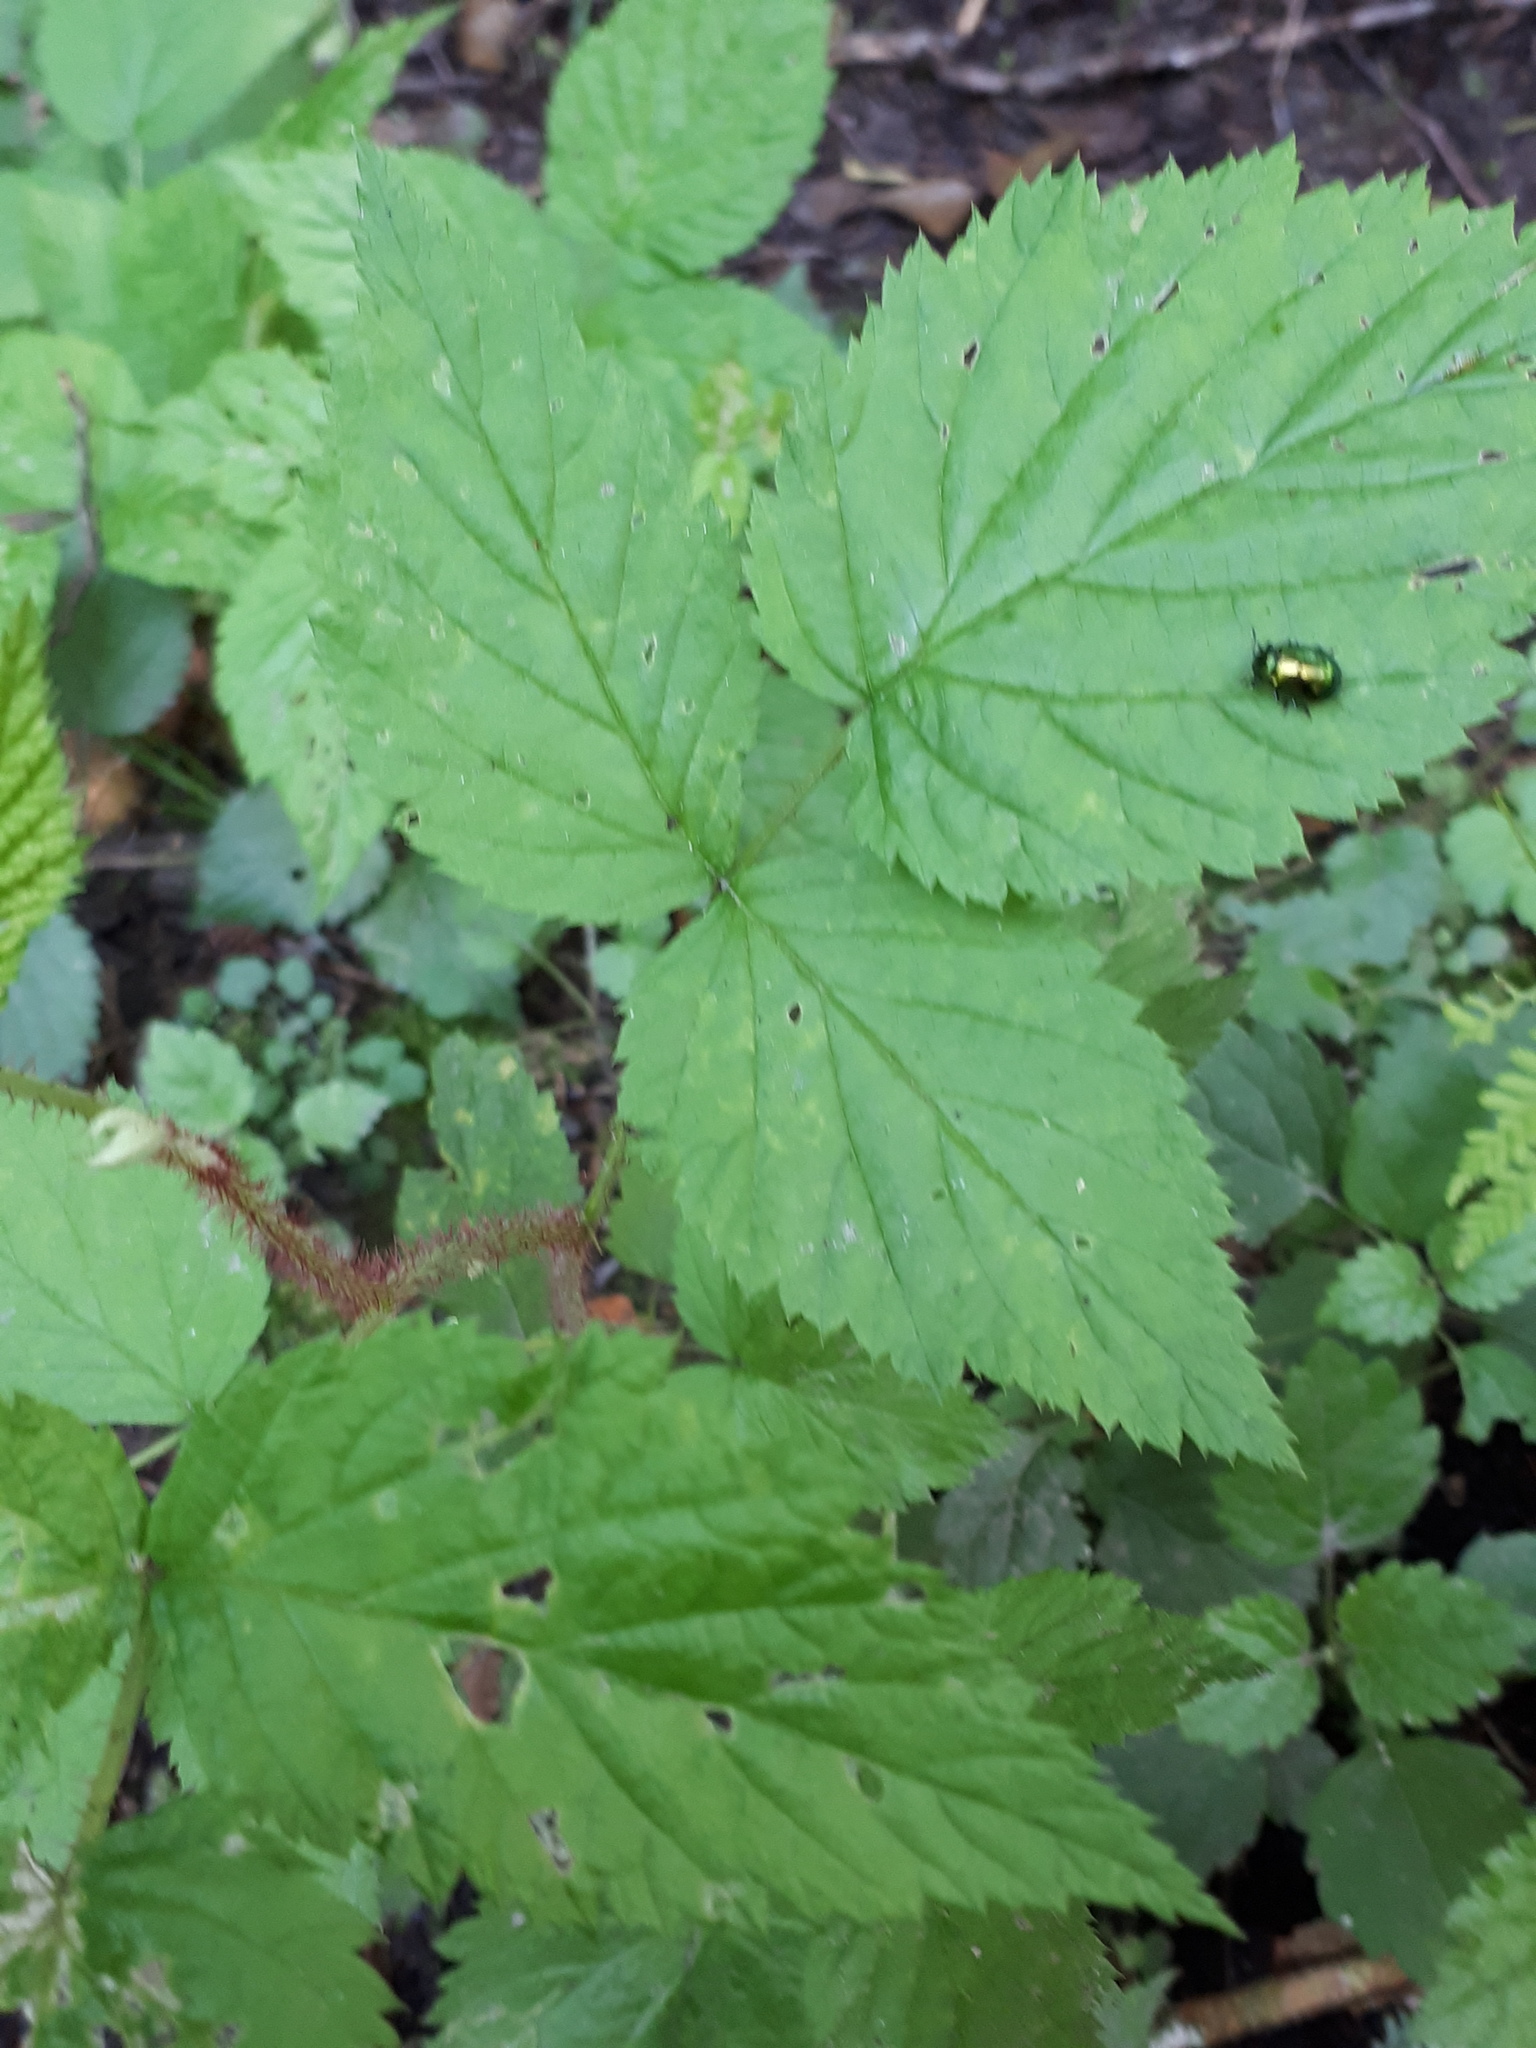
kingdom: Animalia
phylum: Arthropoda
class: Insecta
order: Coleoptera
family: Chrysomelidae
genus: Plagiosterna
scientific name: Plagiosterna aenea
